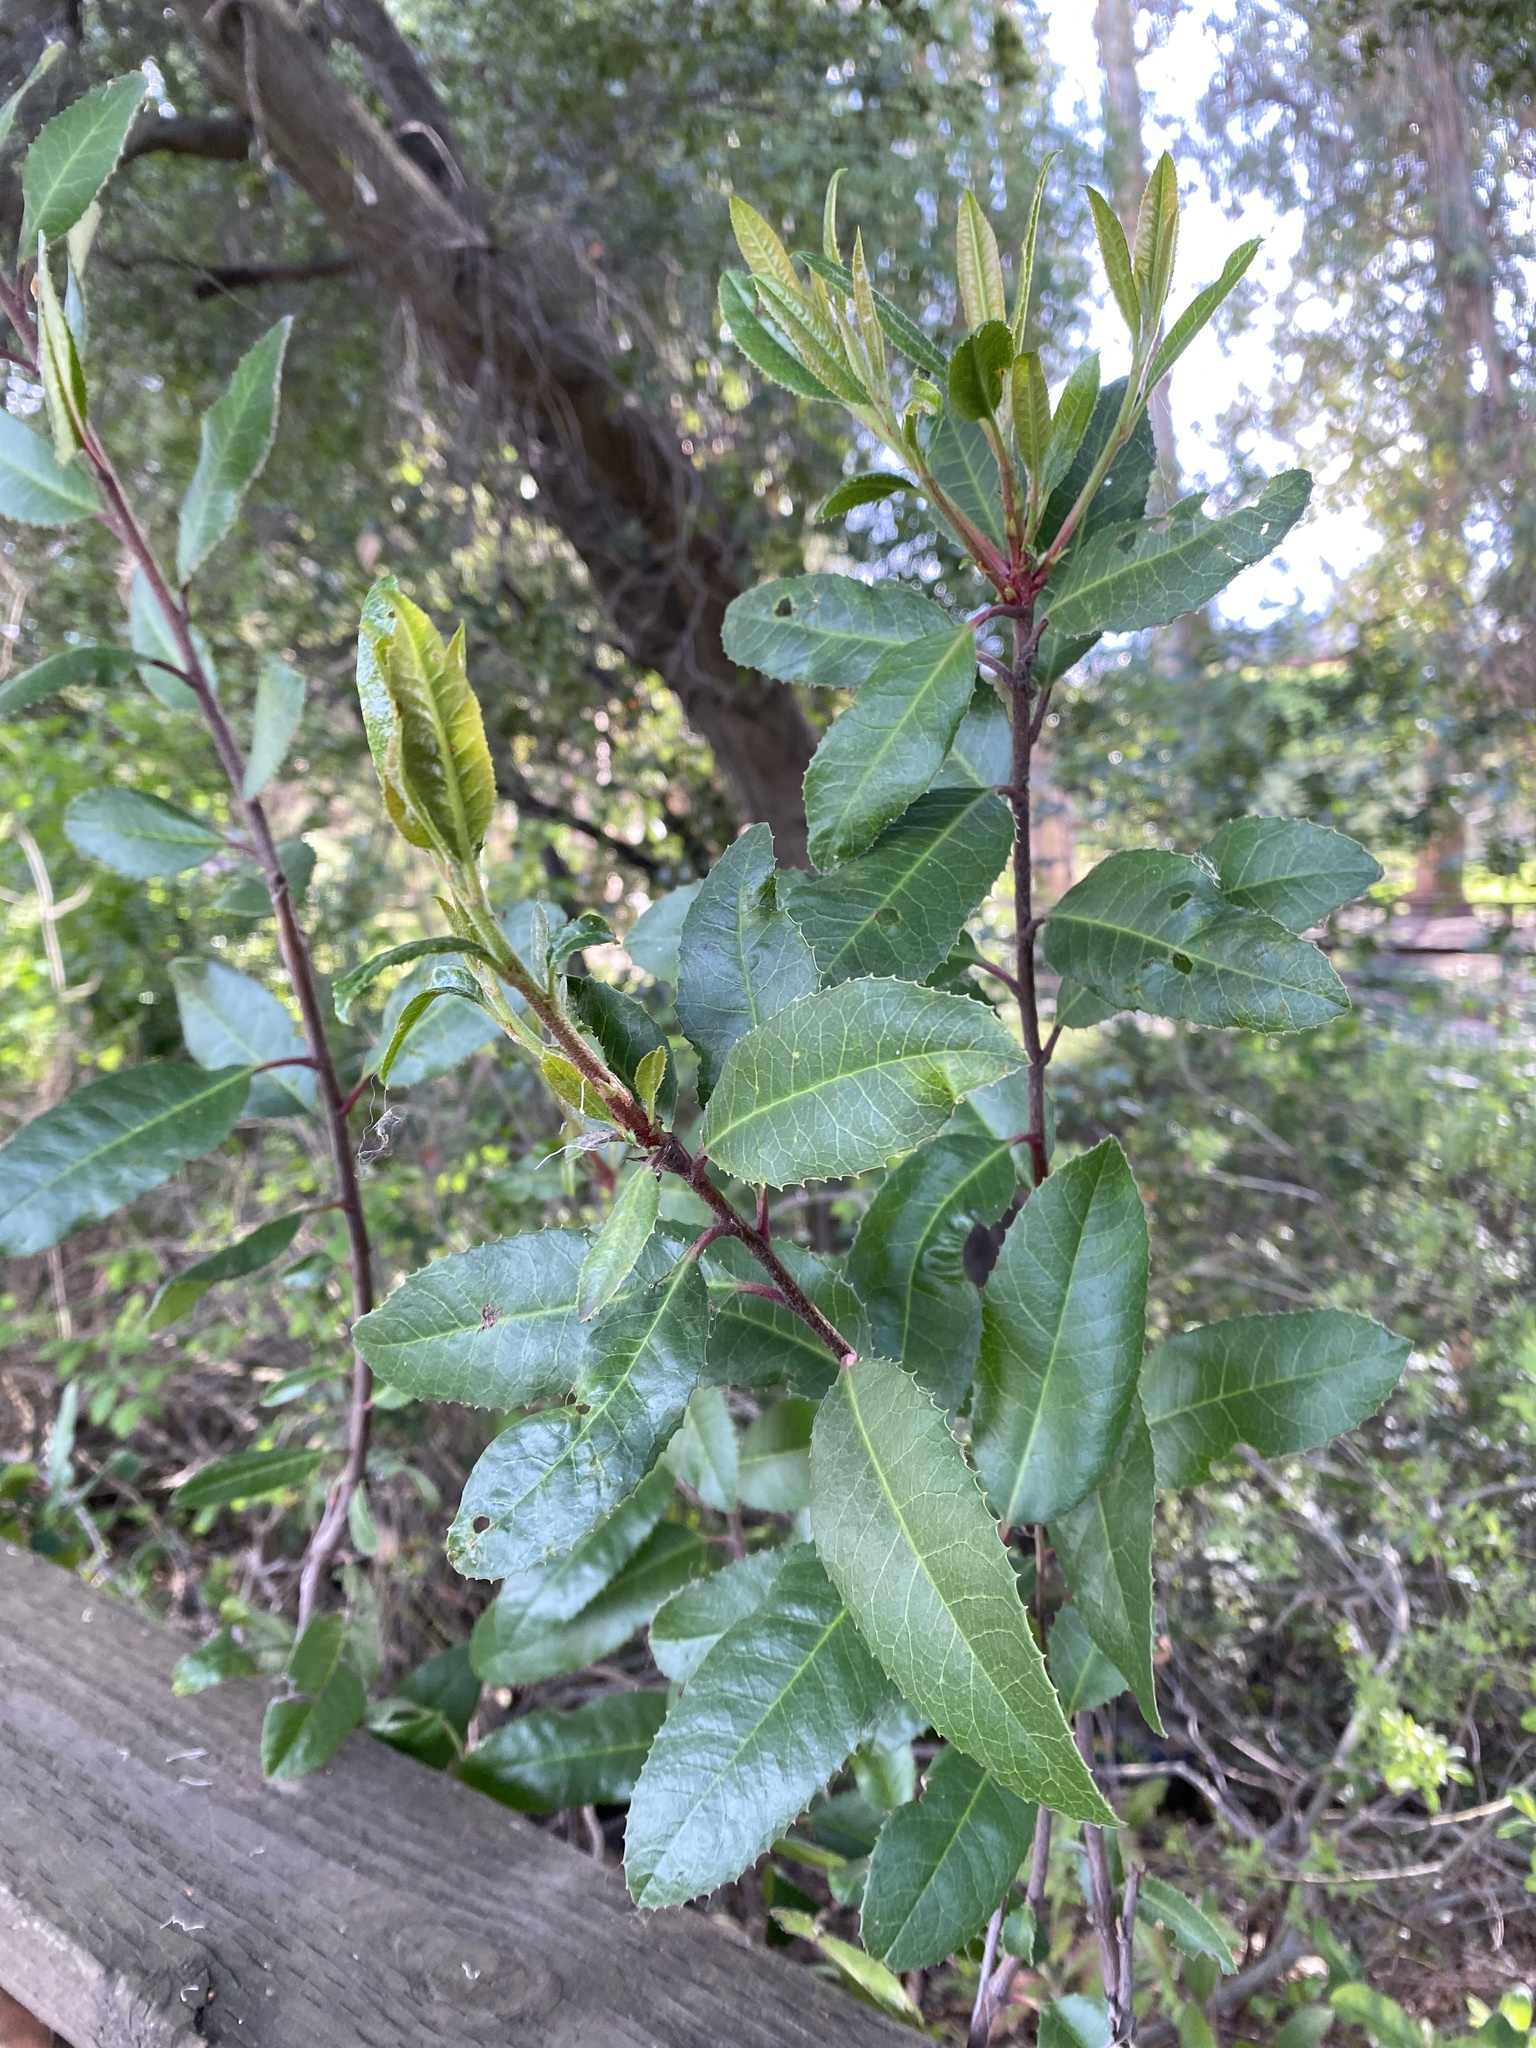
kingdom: Plantae
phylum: Tracheophyta
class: Magnoliopsida
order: Rosales
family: Rosaceae
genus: Heteromeles
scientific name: Heteromeles arbutifolia
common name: California-holly
